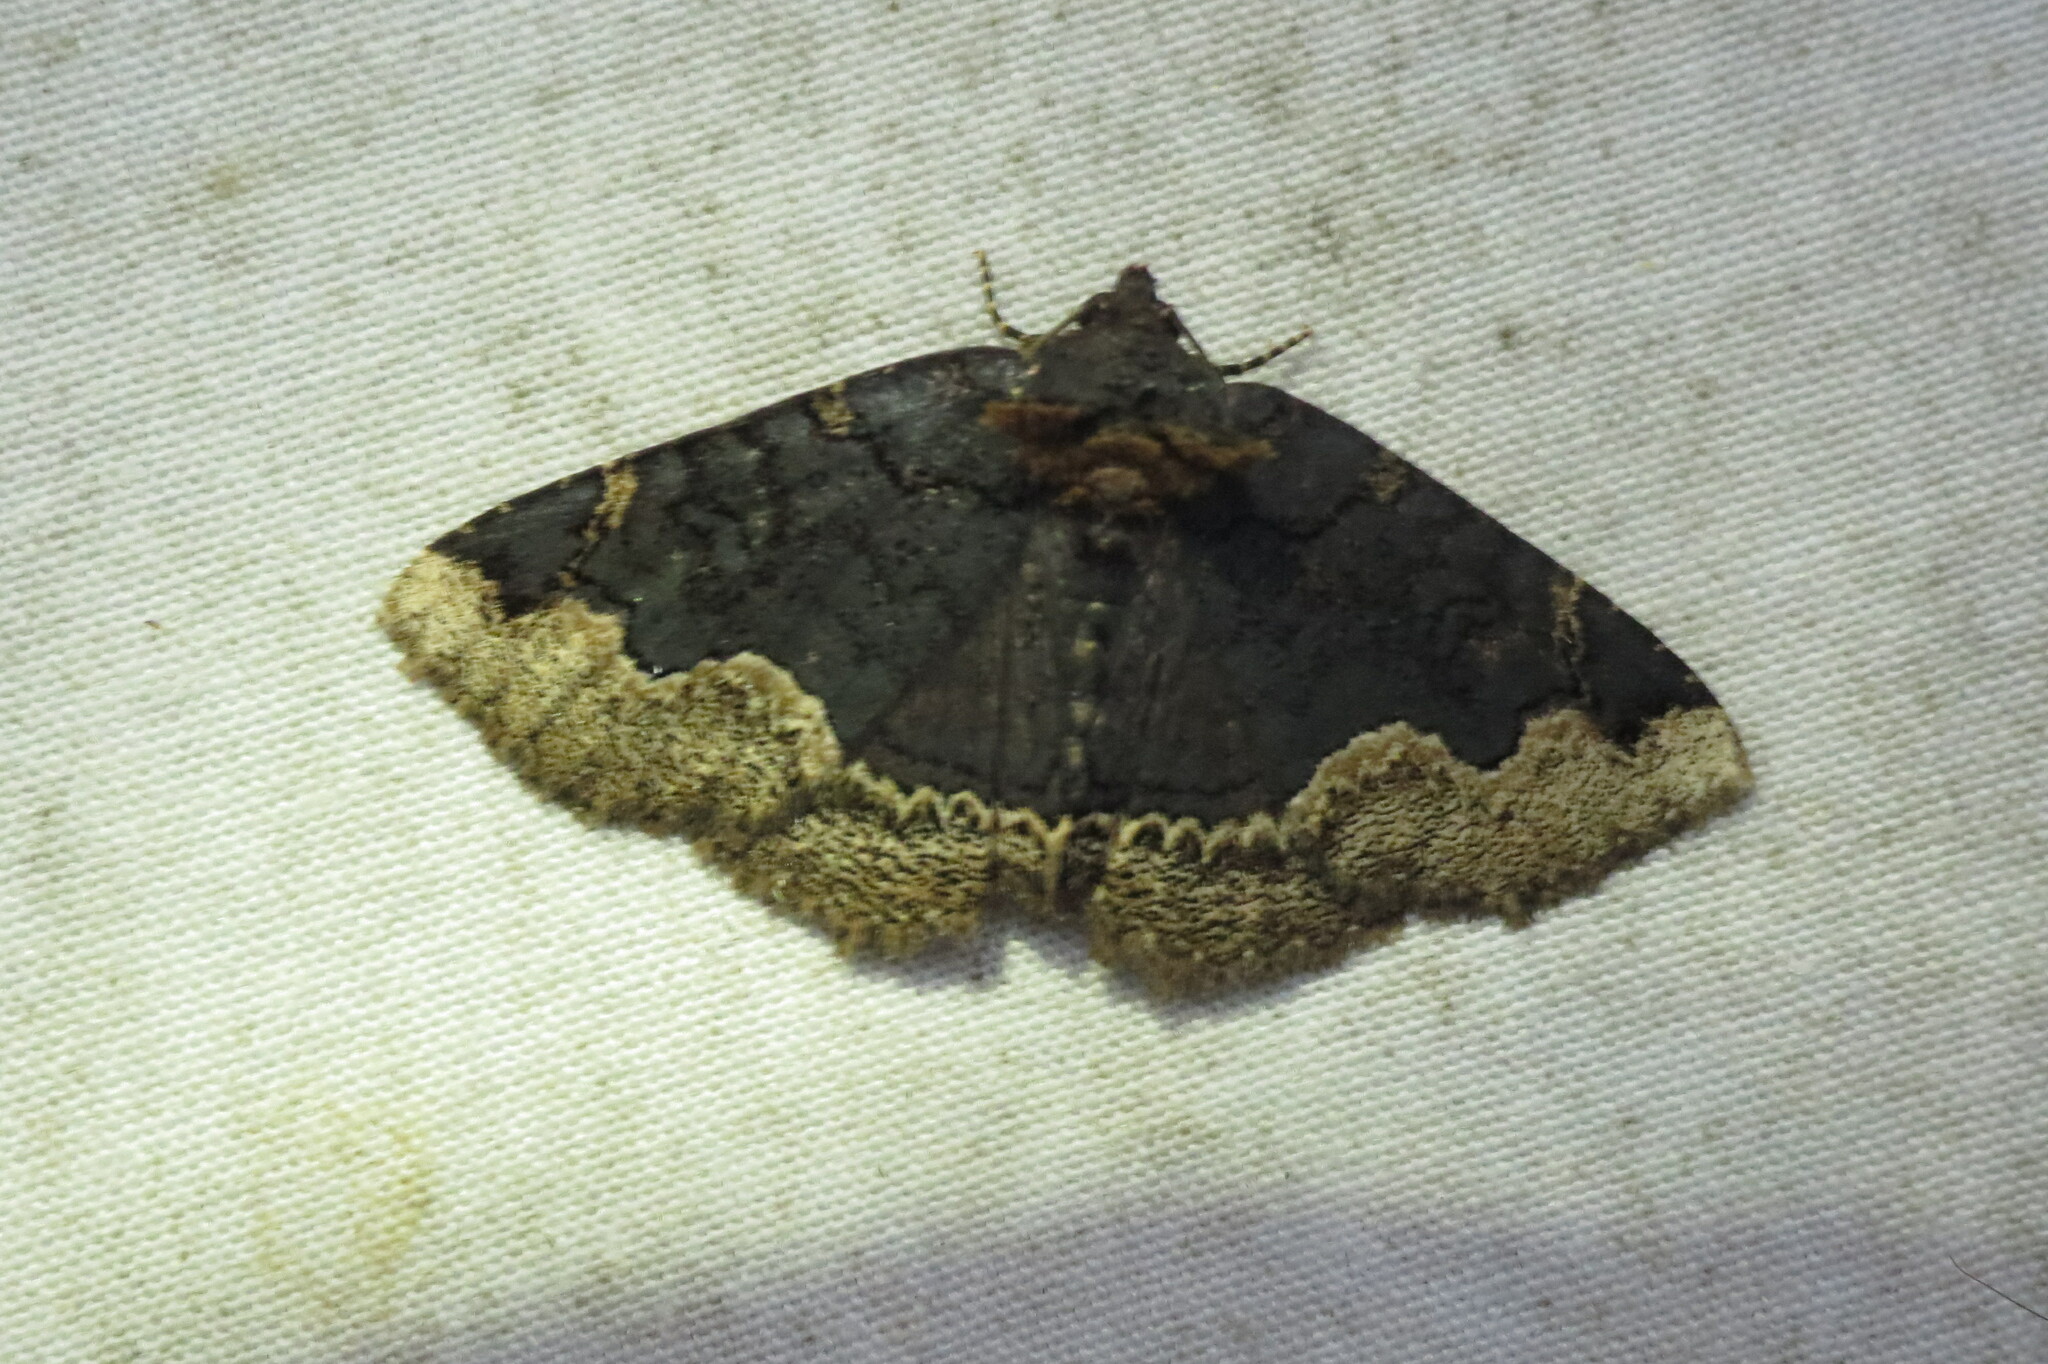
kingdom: Animalia
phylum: Arthropoda
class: Insecta
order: Lepidoptera
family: Erebidae
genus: Zale
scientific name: Zale horrida
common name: Horrid zale moth
